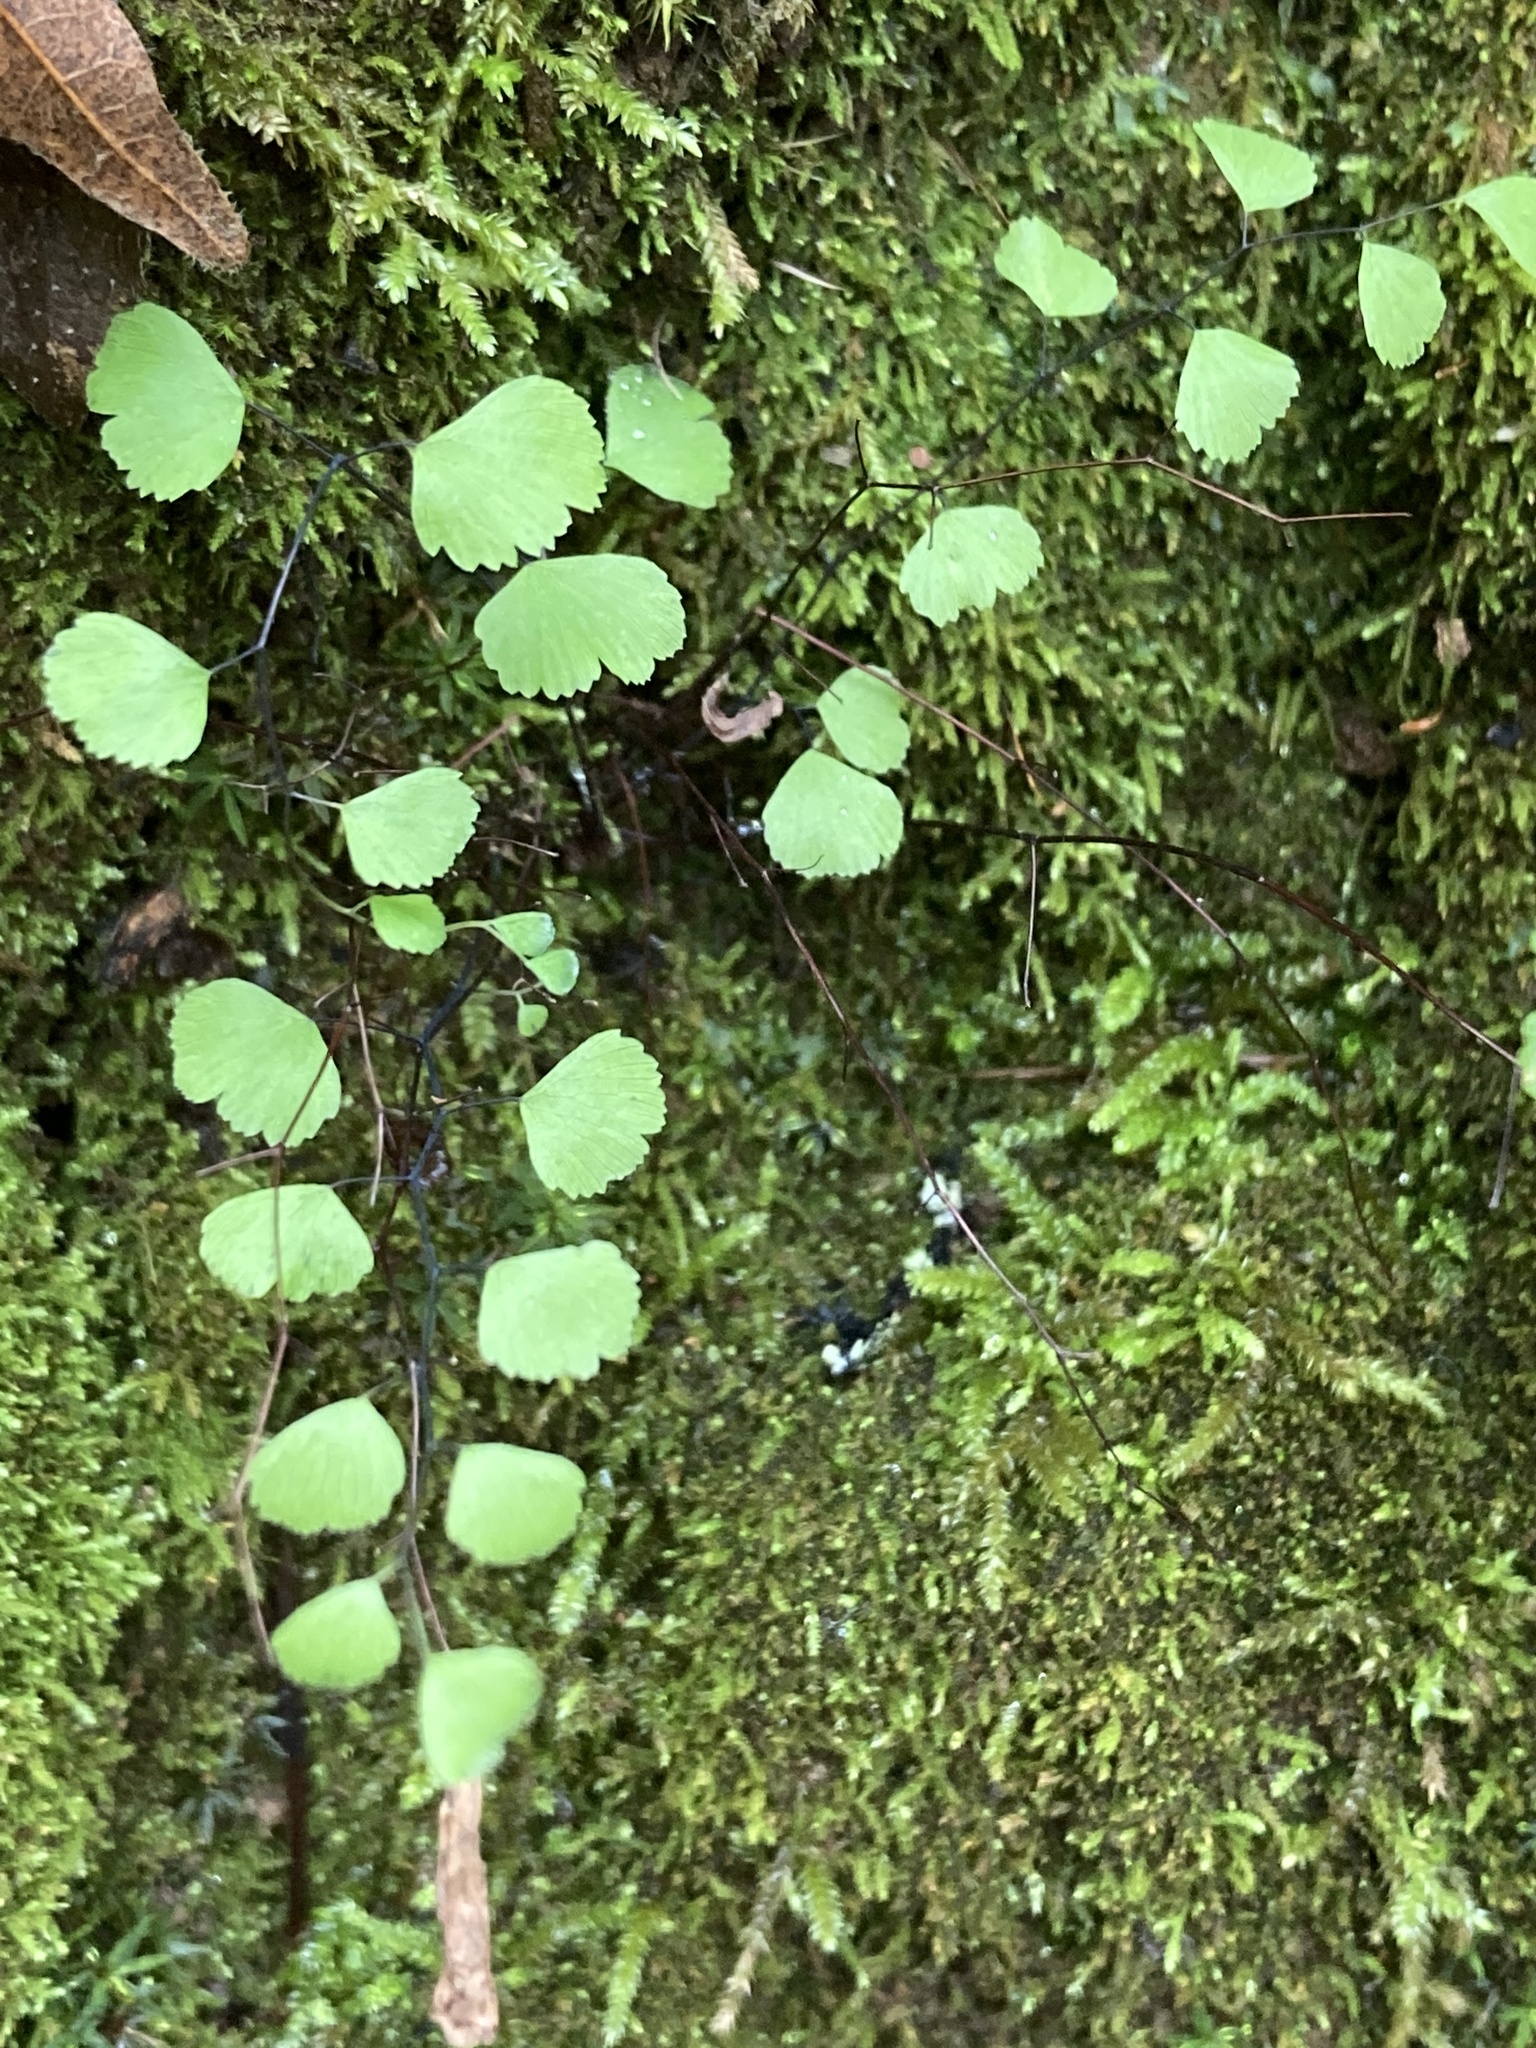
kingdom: Plantae
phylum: Tracheophyta
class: Polypodiopsida
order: Polypodiales
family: Pteridaceae
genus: Adiantum
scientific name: Adiantum jordanii
